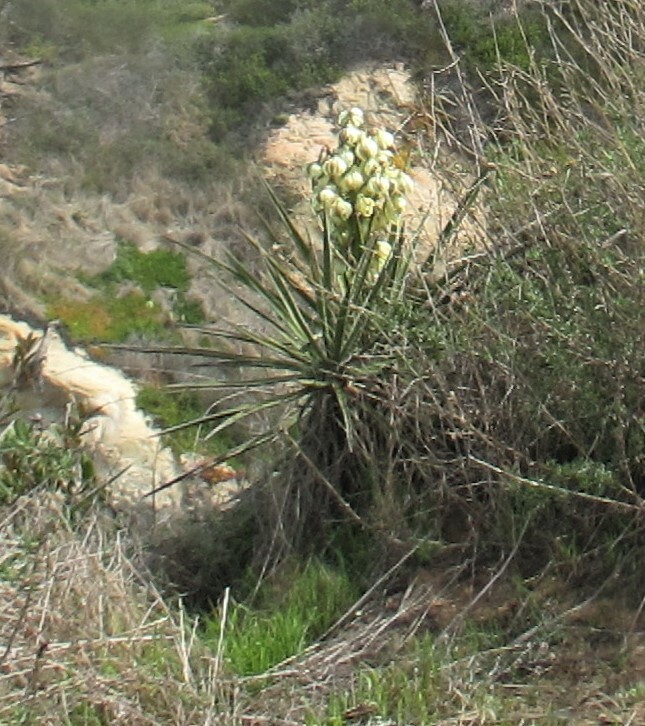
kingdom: Plantae
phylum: Tracheophyta
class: Liliopsida
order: Asparagales
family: Asparagaceae
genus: Yucca
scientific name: Yucca schidigera
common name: Mojave yucca
